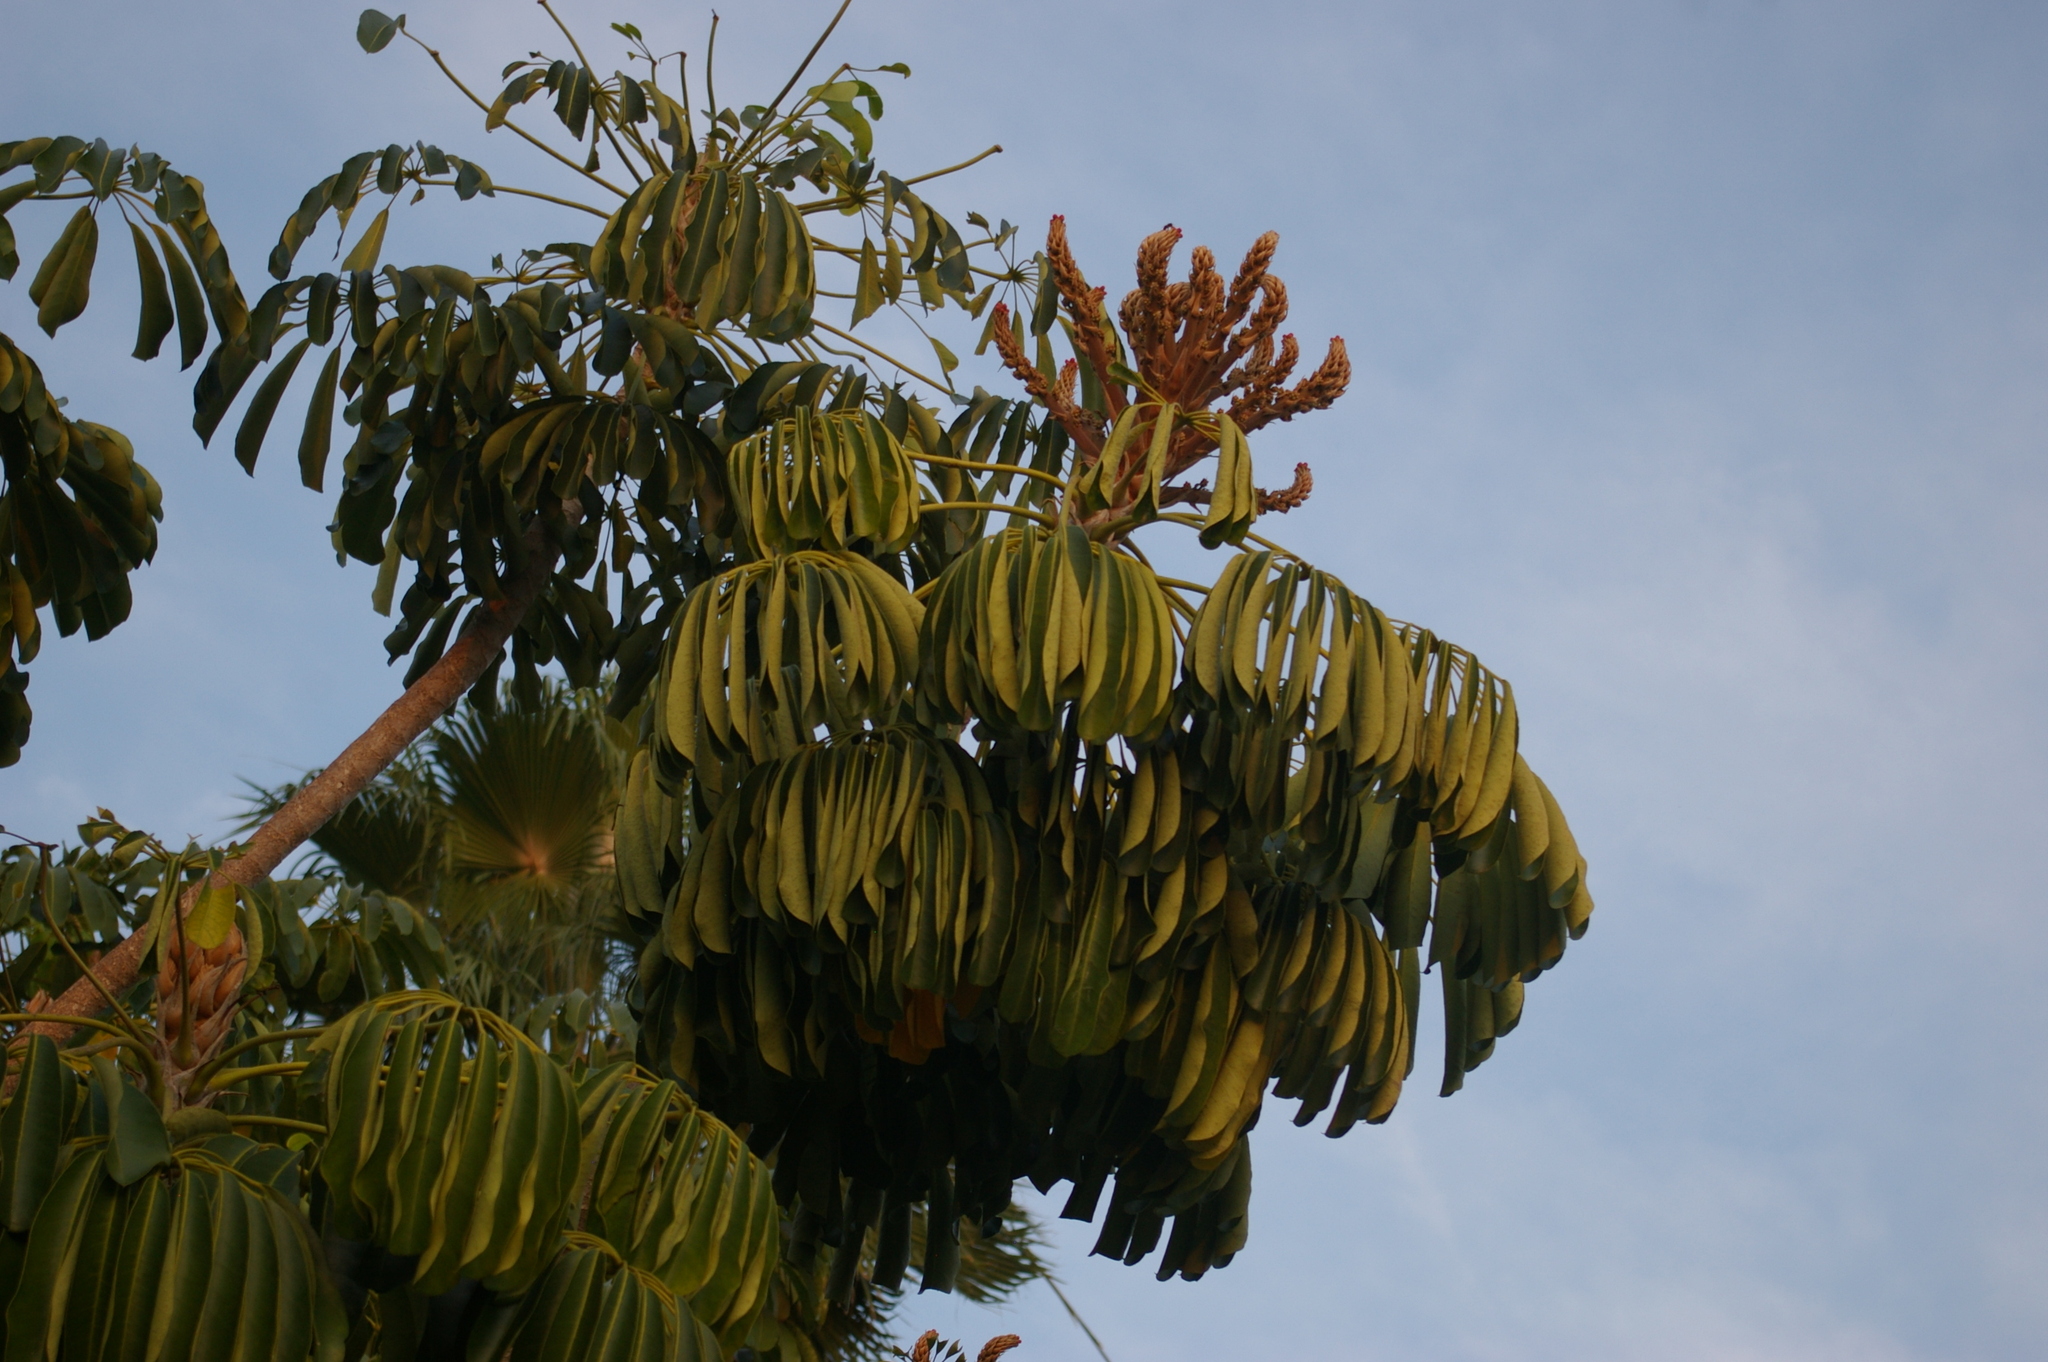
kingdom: Plantae
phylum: Tracheophyta
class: Magnoliopsida
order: Apiales
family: Araliaceae
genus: Heptapleurum
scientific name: Heptapleurum actinophyllum
